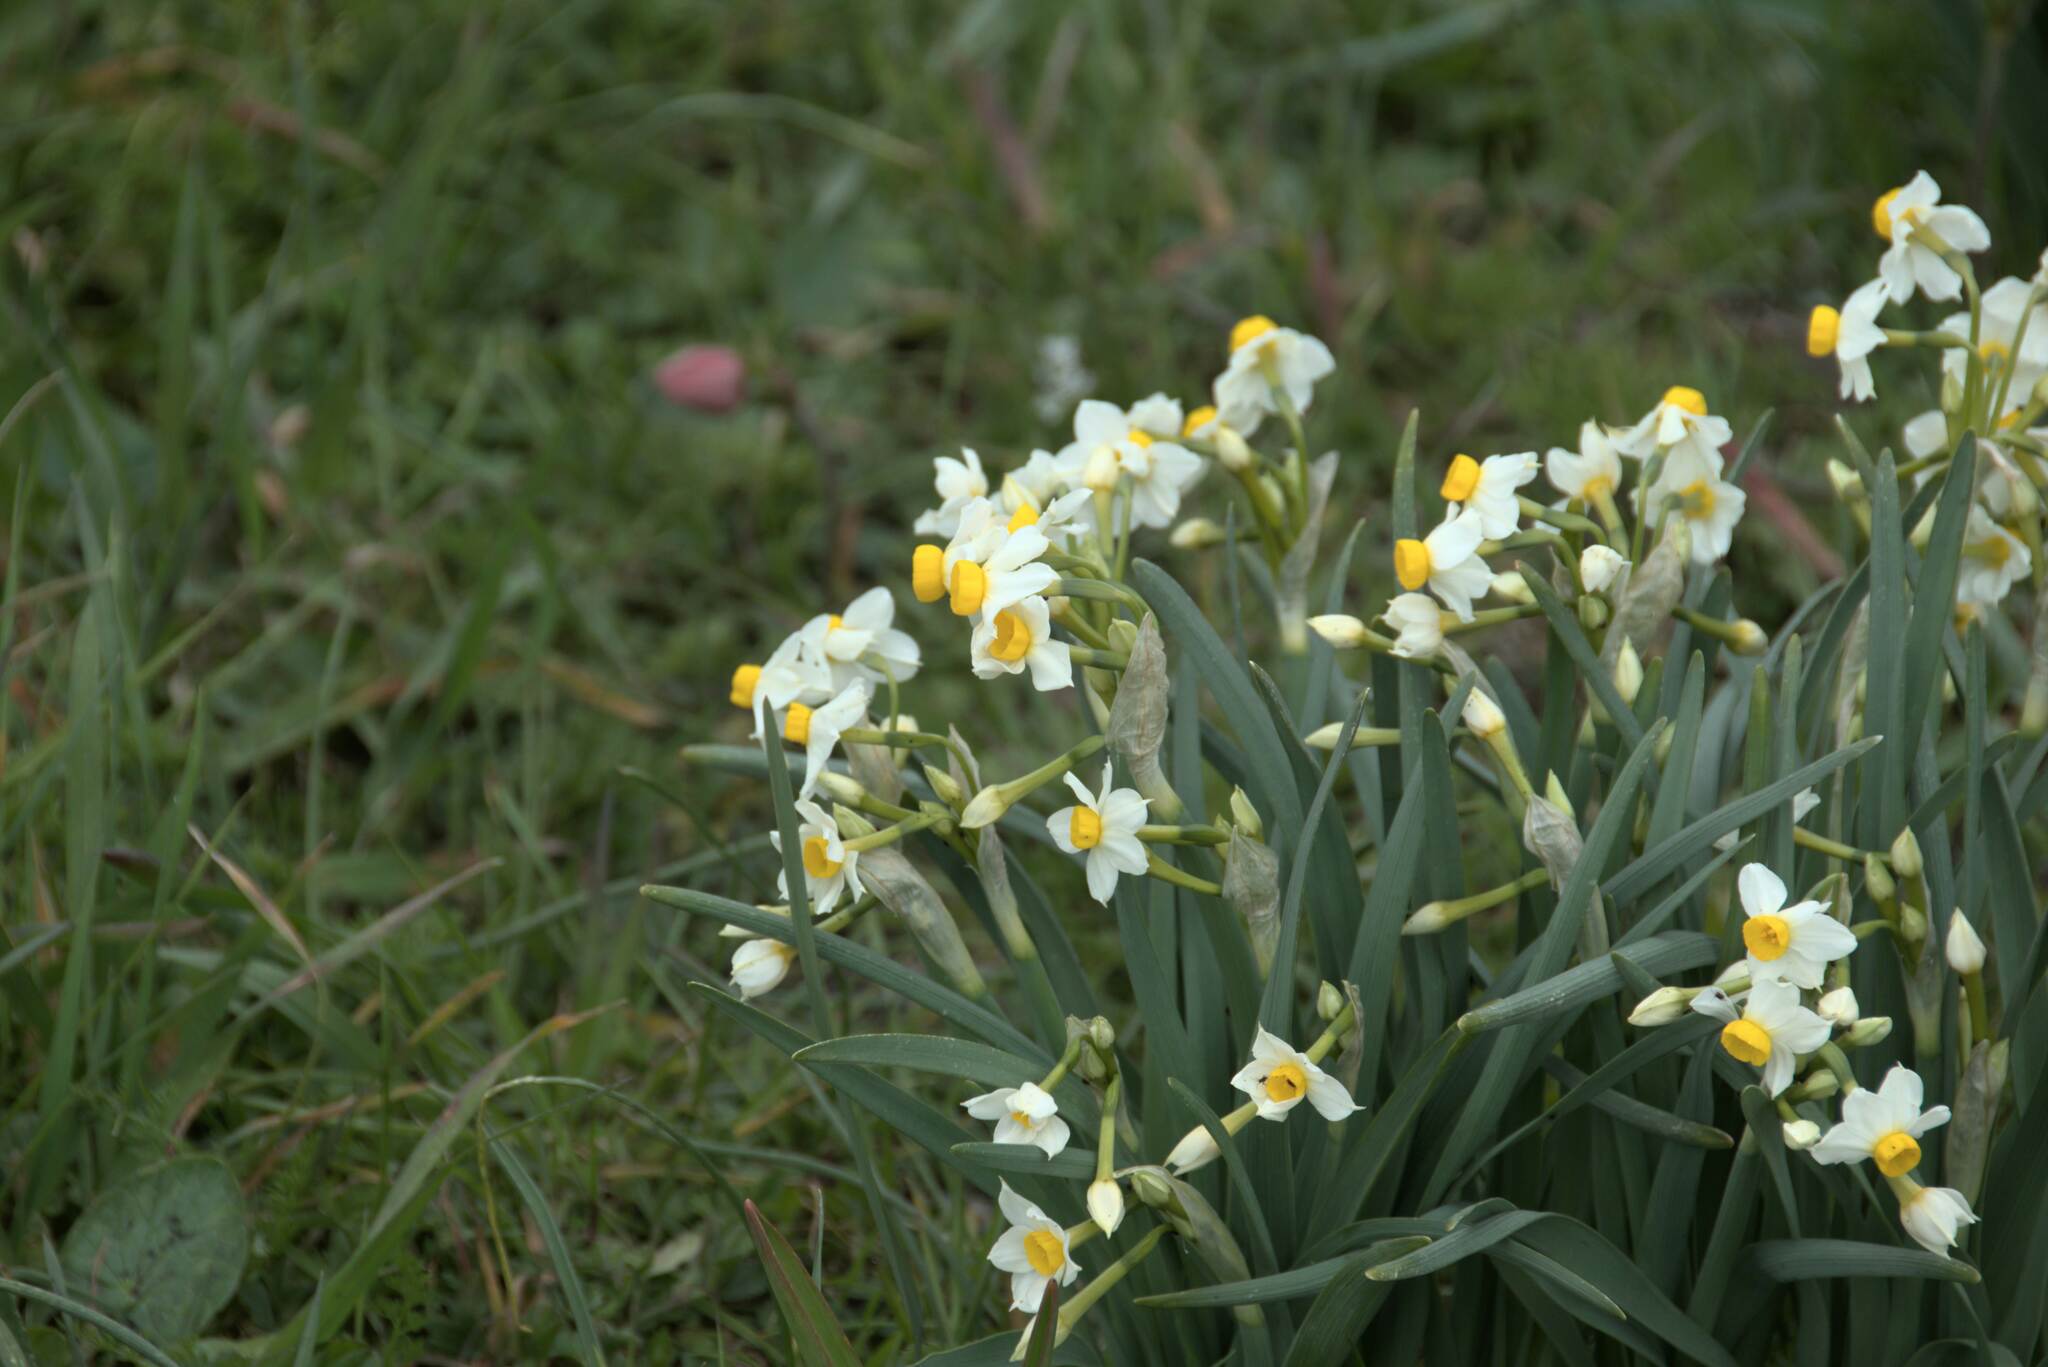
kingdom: Plantae
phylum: Tracheophyta
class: Liliopsida
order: Asparagales
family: Amaryllidaceae
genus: Narcissus
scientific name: Narcissus tazetta
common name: Bunch-flowered daffodil
